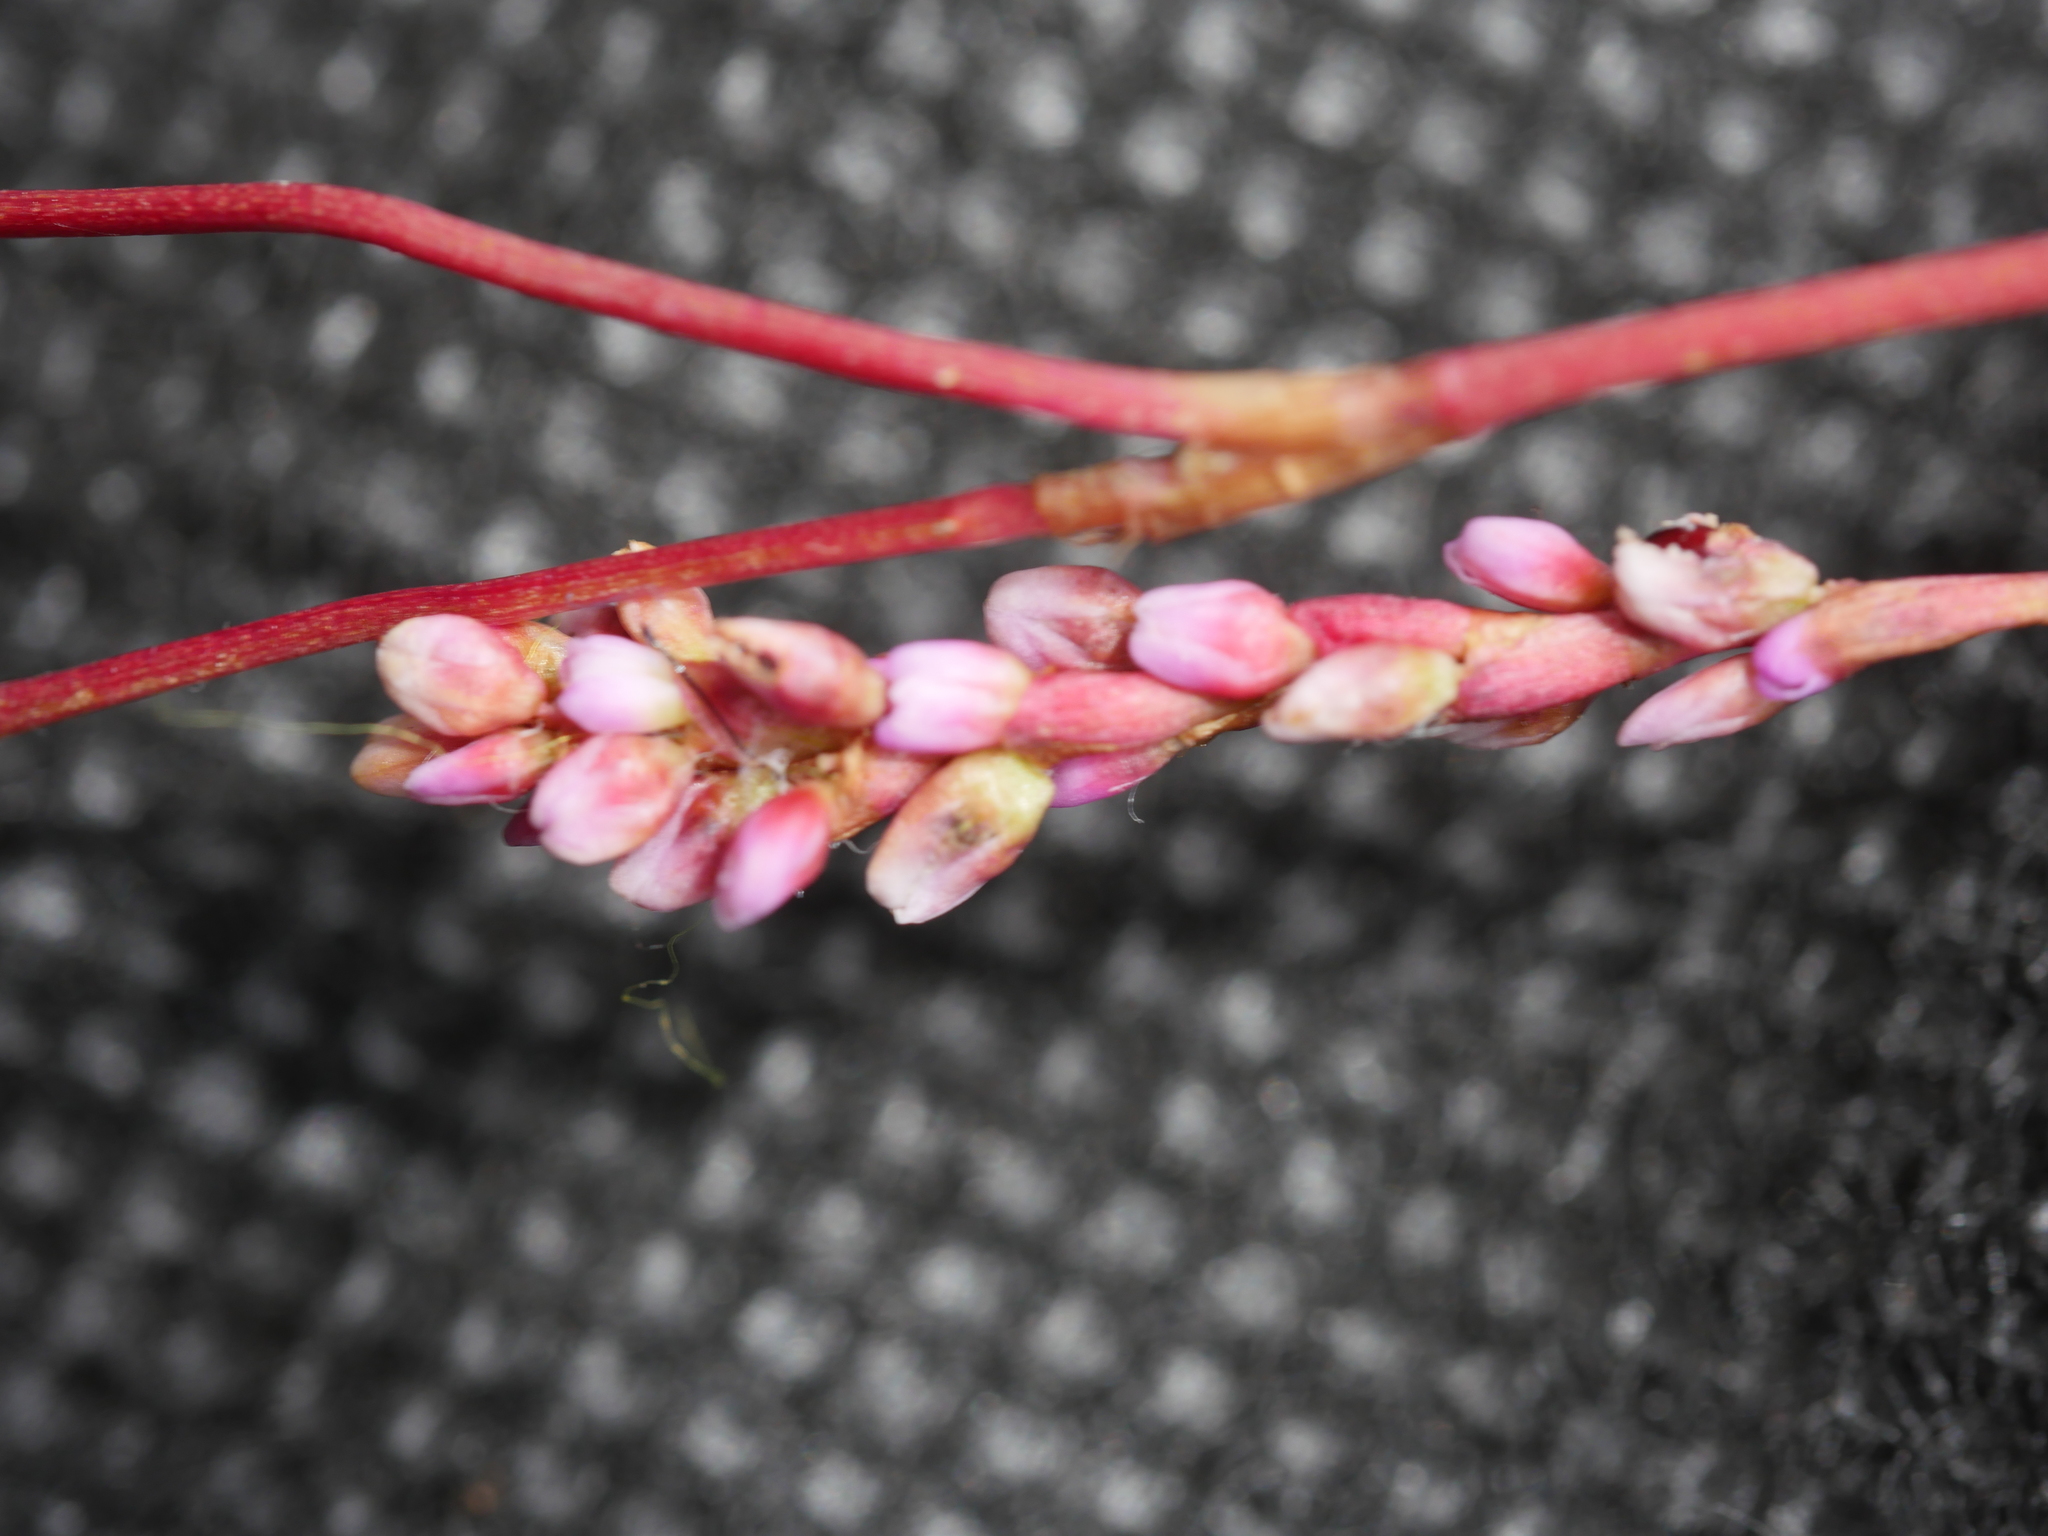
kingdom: Plantae
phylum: Tracheophyta
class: Magnoliopsida
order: Caryophyllales
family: Polygonaceae
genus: Persicaria
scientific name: Persicaria decipiens
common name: Willow-weed
